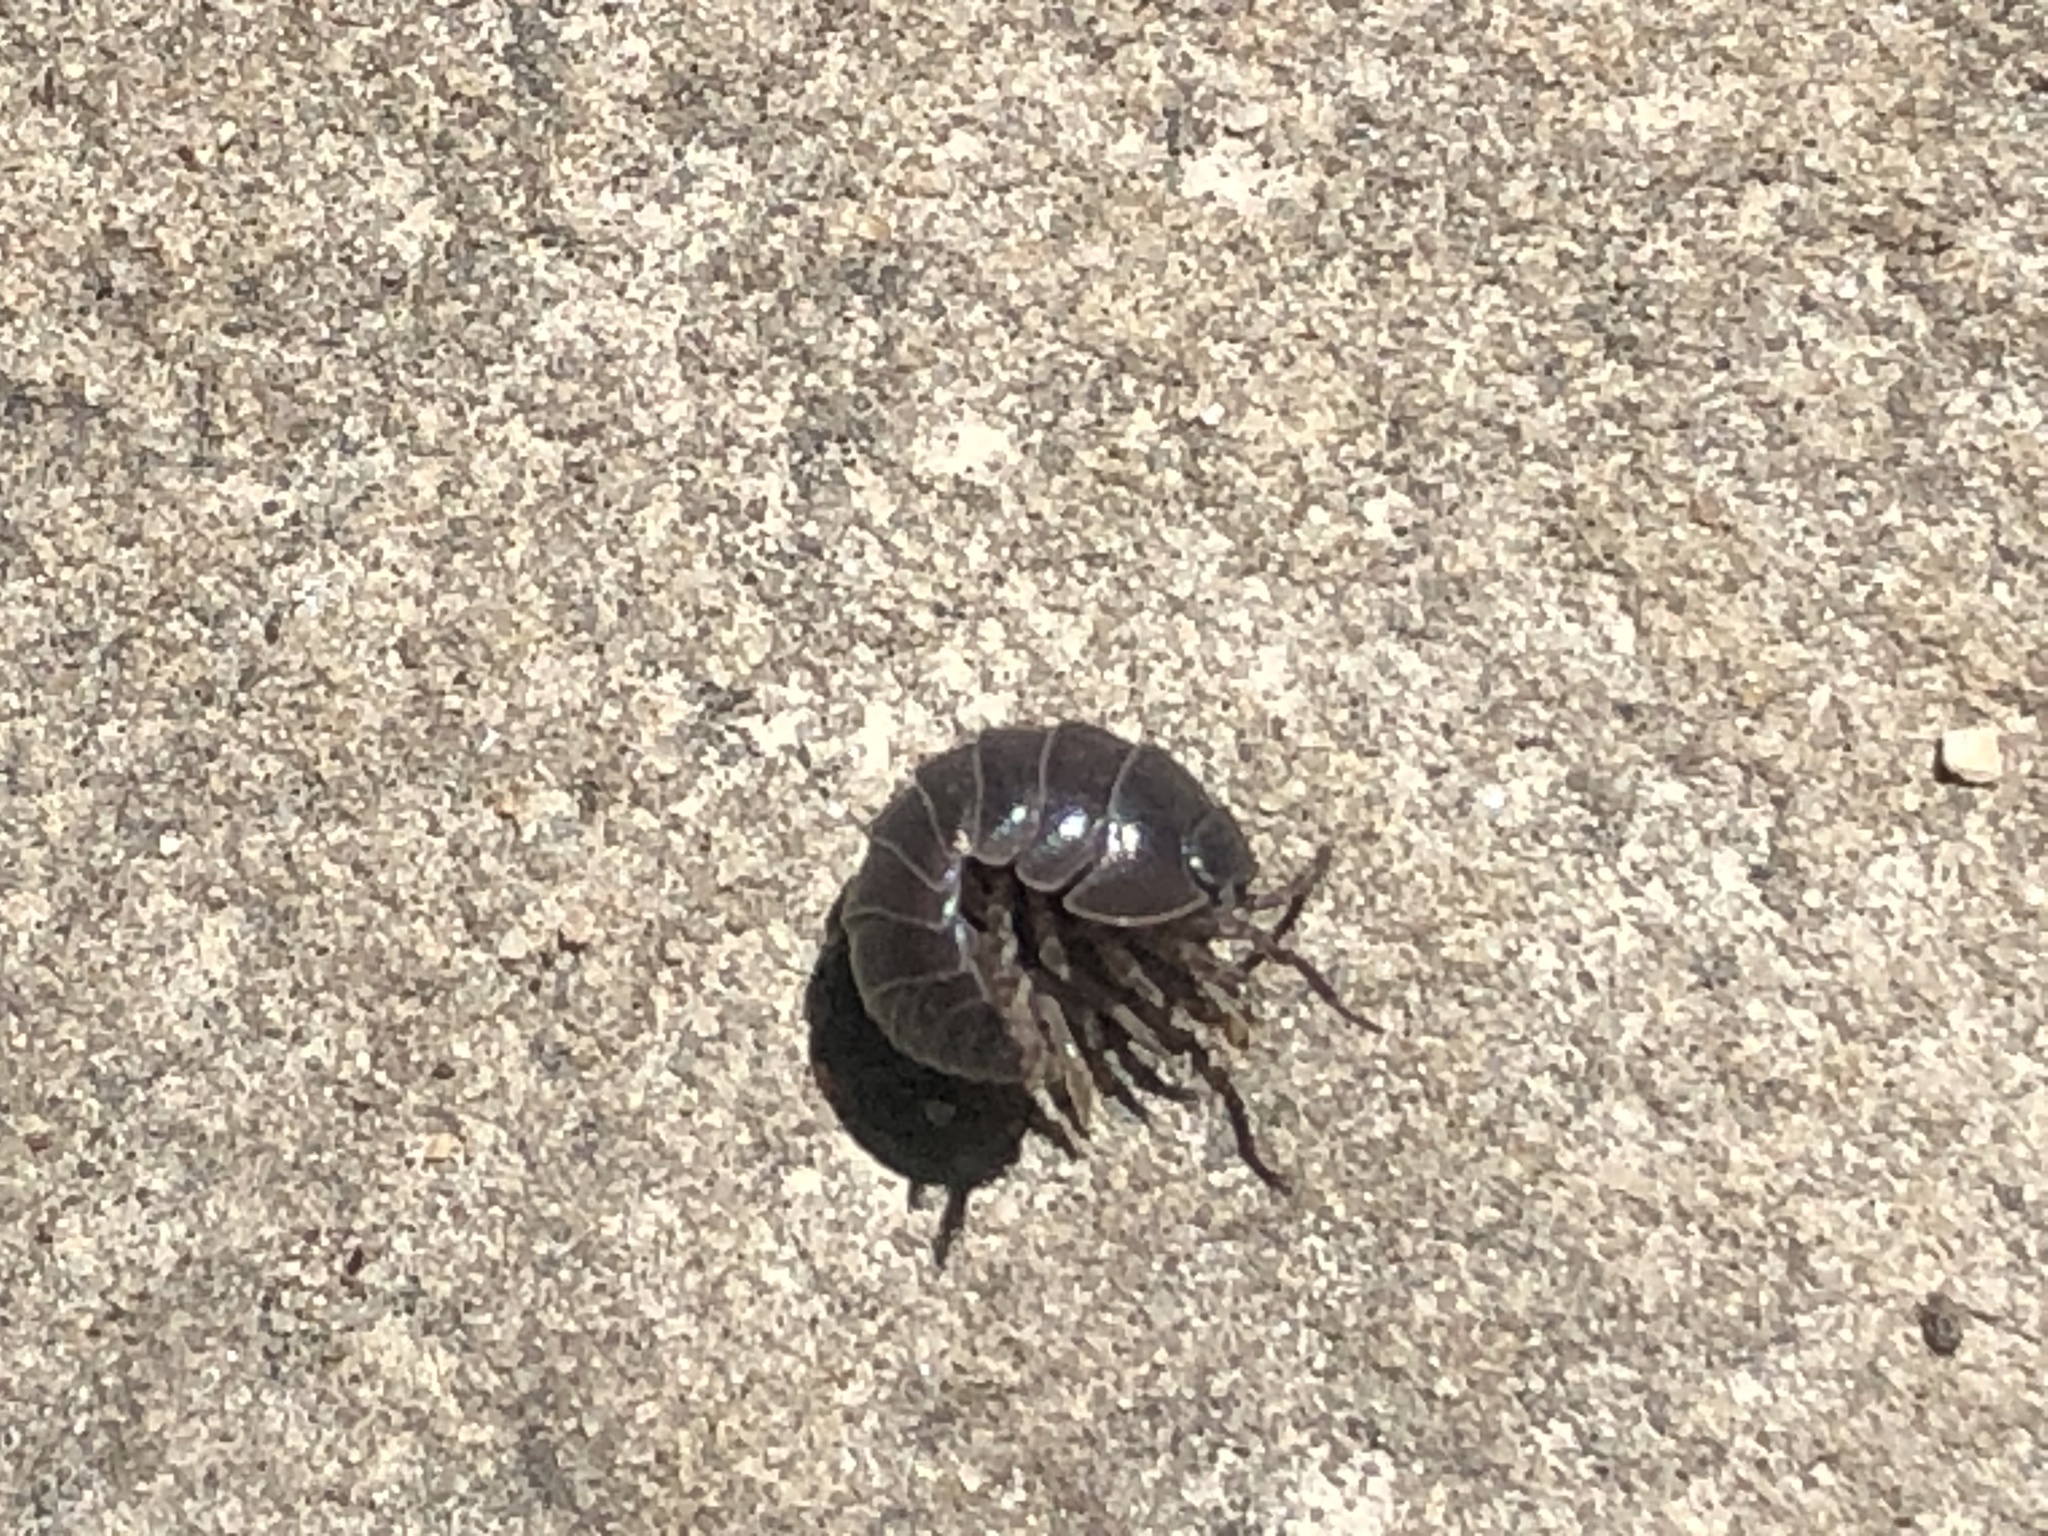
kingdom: Animalia
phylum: Arthropoda
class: Malacostraca
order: Isopoda
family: Armadillidiidae
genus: Armadillidium
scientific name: Armadillidium vulgare
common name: Common pill woodlouse
